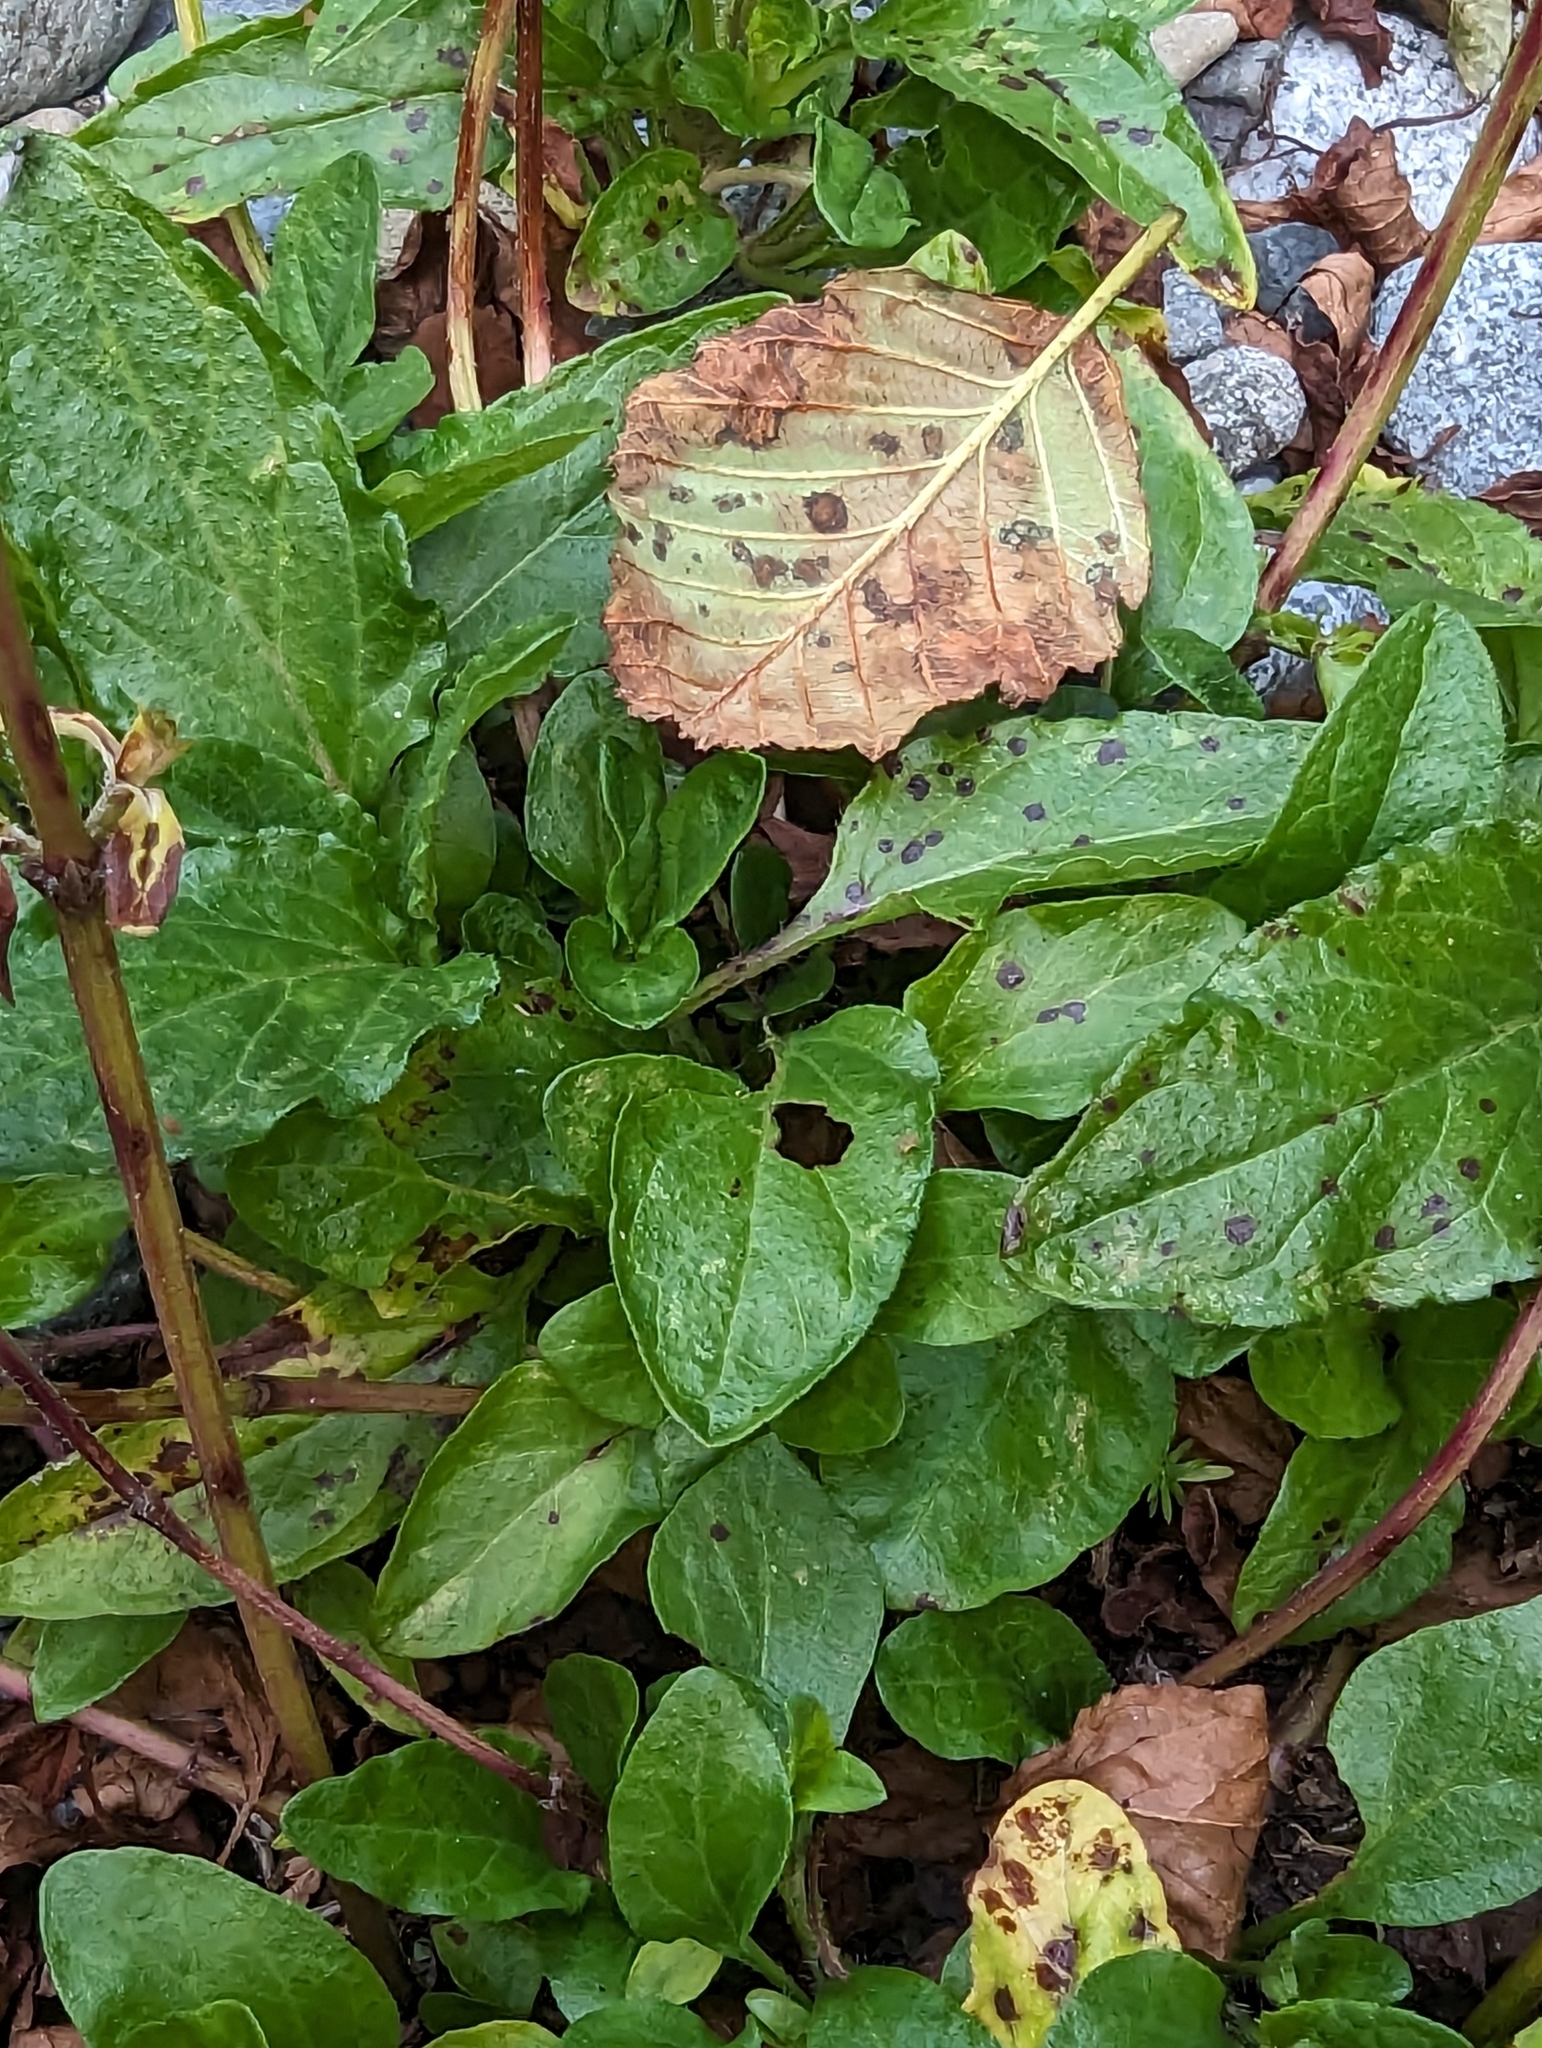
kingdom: Plantae
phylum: Tracheophyta
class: Magnoliopsida
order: Lamiales
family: Lamiaceae
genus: Prunella
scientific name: Prunella vulgaris
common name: Heal-all
